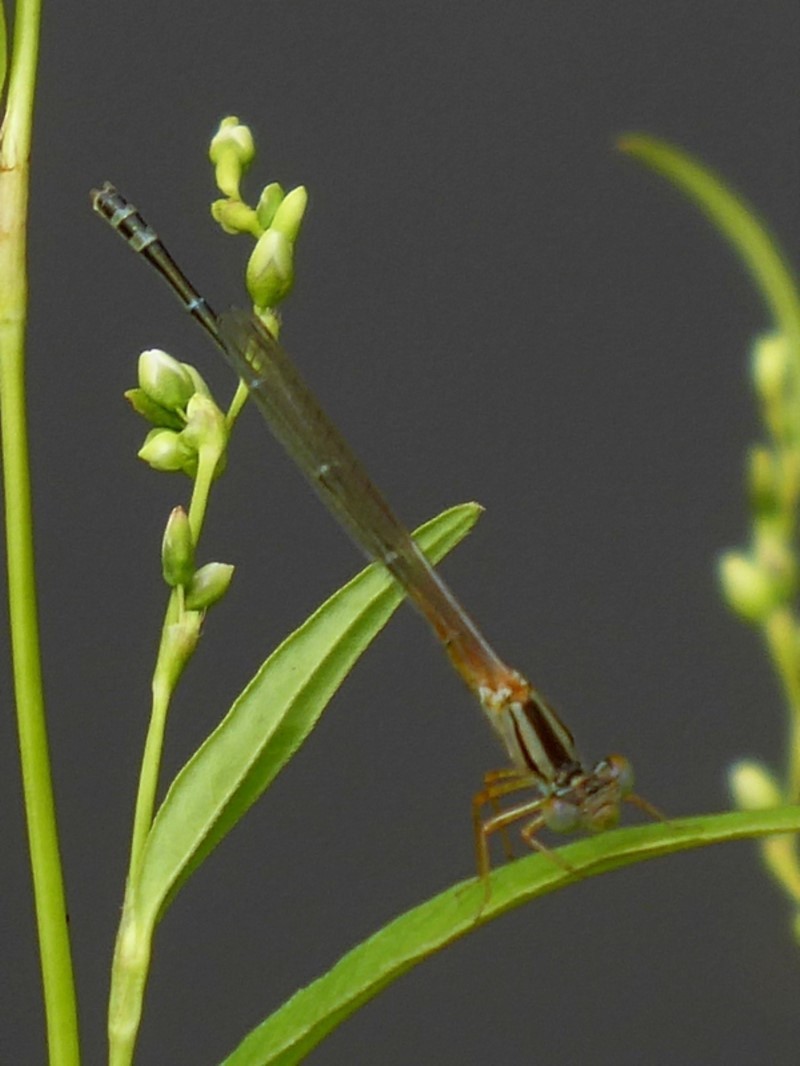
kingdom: Animalia
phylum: Arthropoda
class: Insecta
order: Odonata
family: Coenagrionidae
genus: Xanthagrion
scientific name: Xanthagrion erythroneurum
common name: Red and blue damsel
